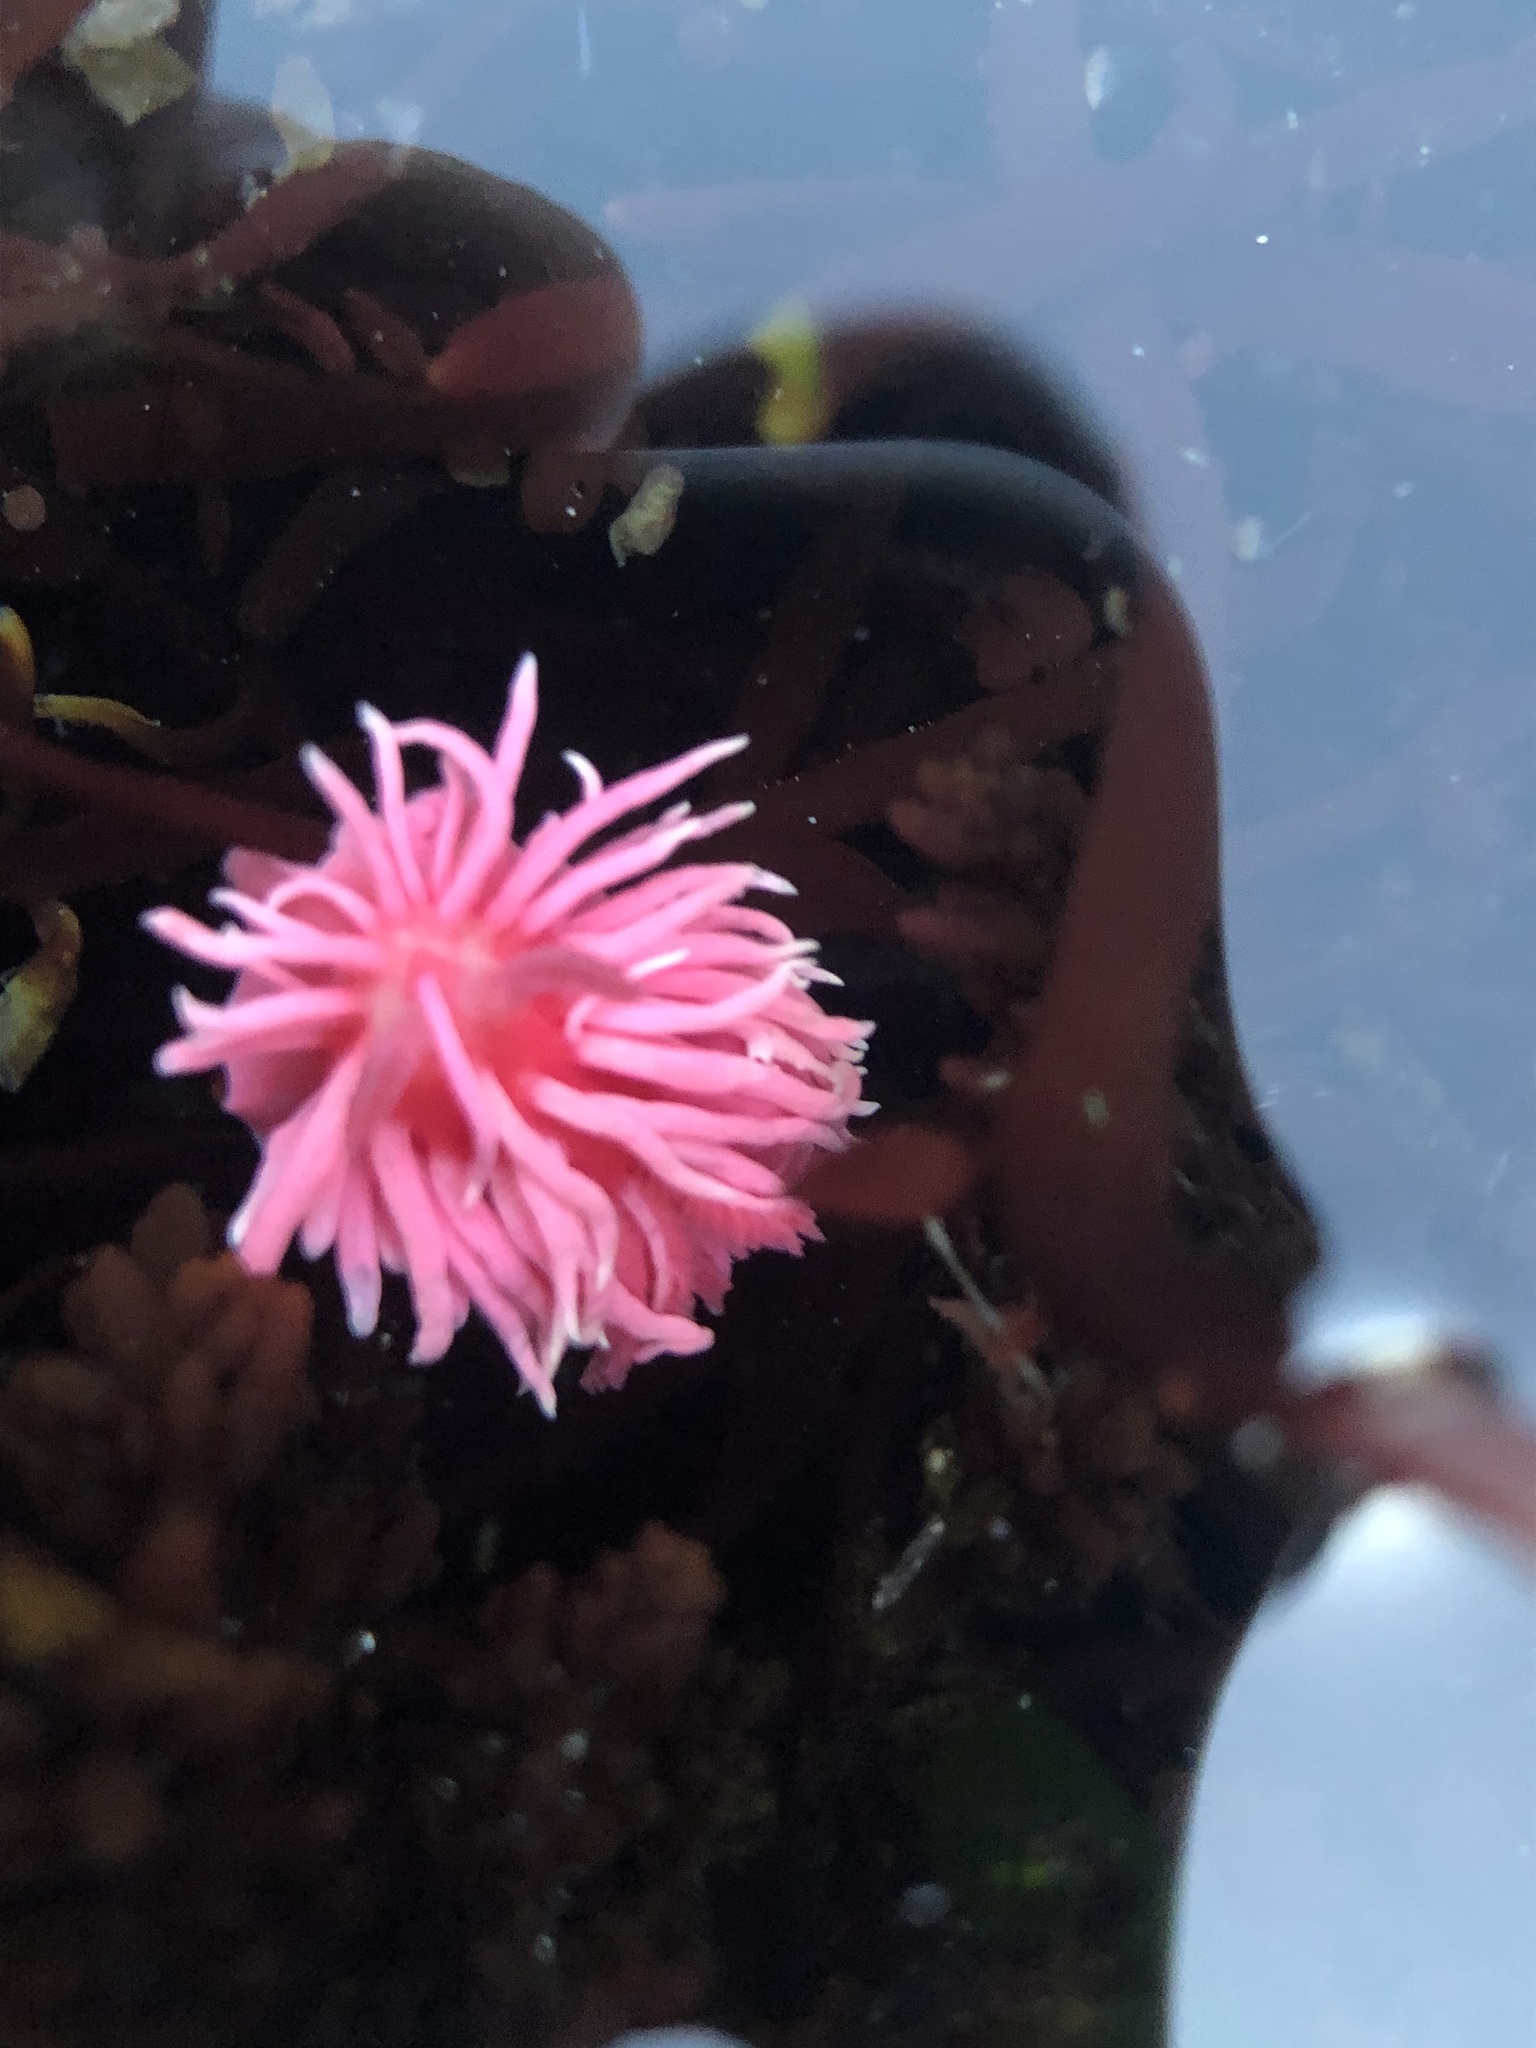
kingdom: Animalia
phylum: Mollusca
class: Gastropoda
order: Nudibranchia
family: Goniodorididae
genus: Okenia
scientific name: Okenia
